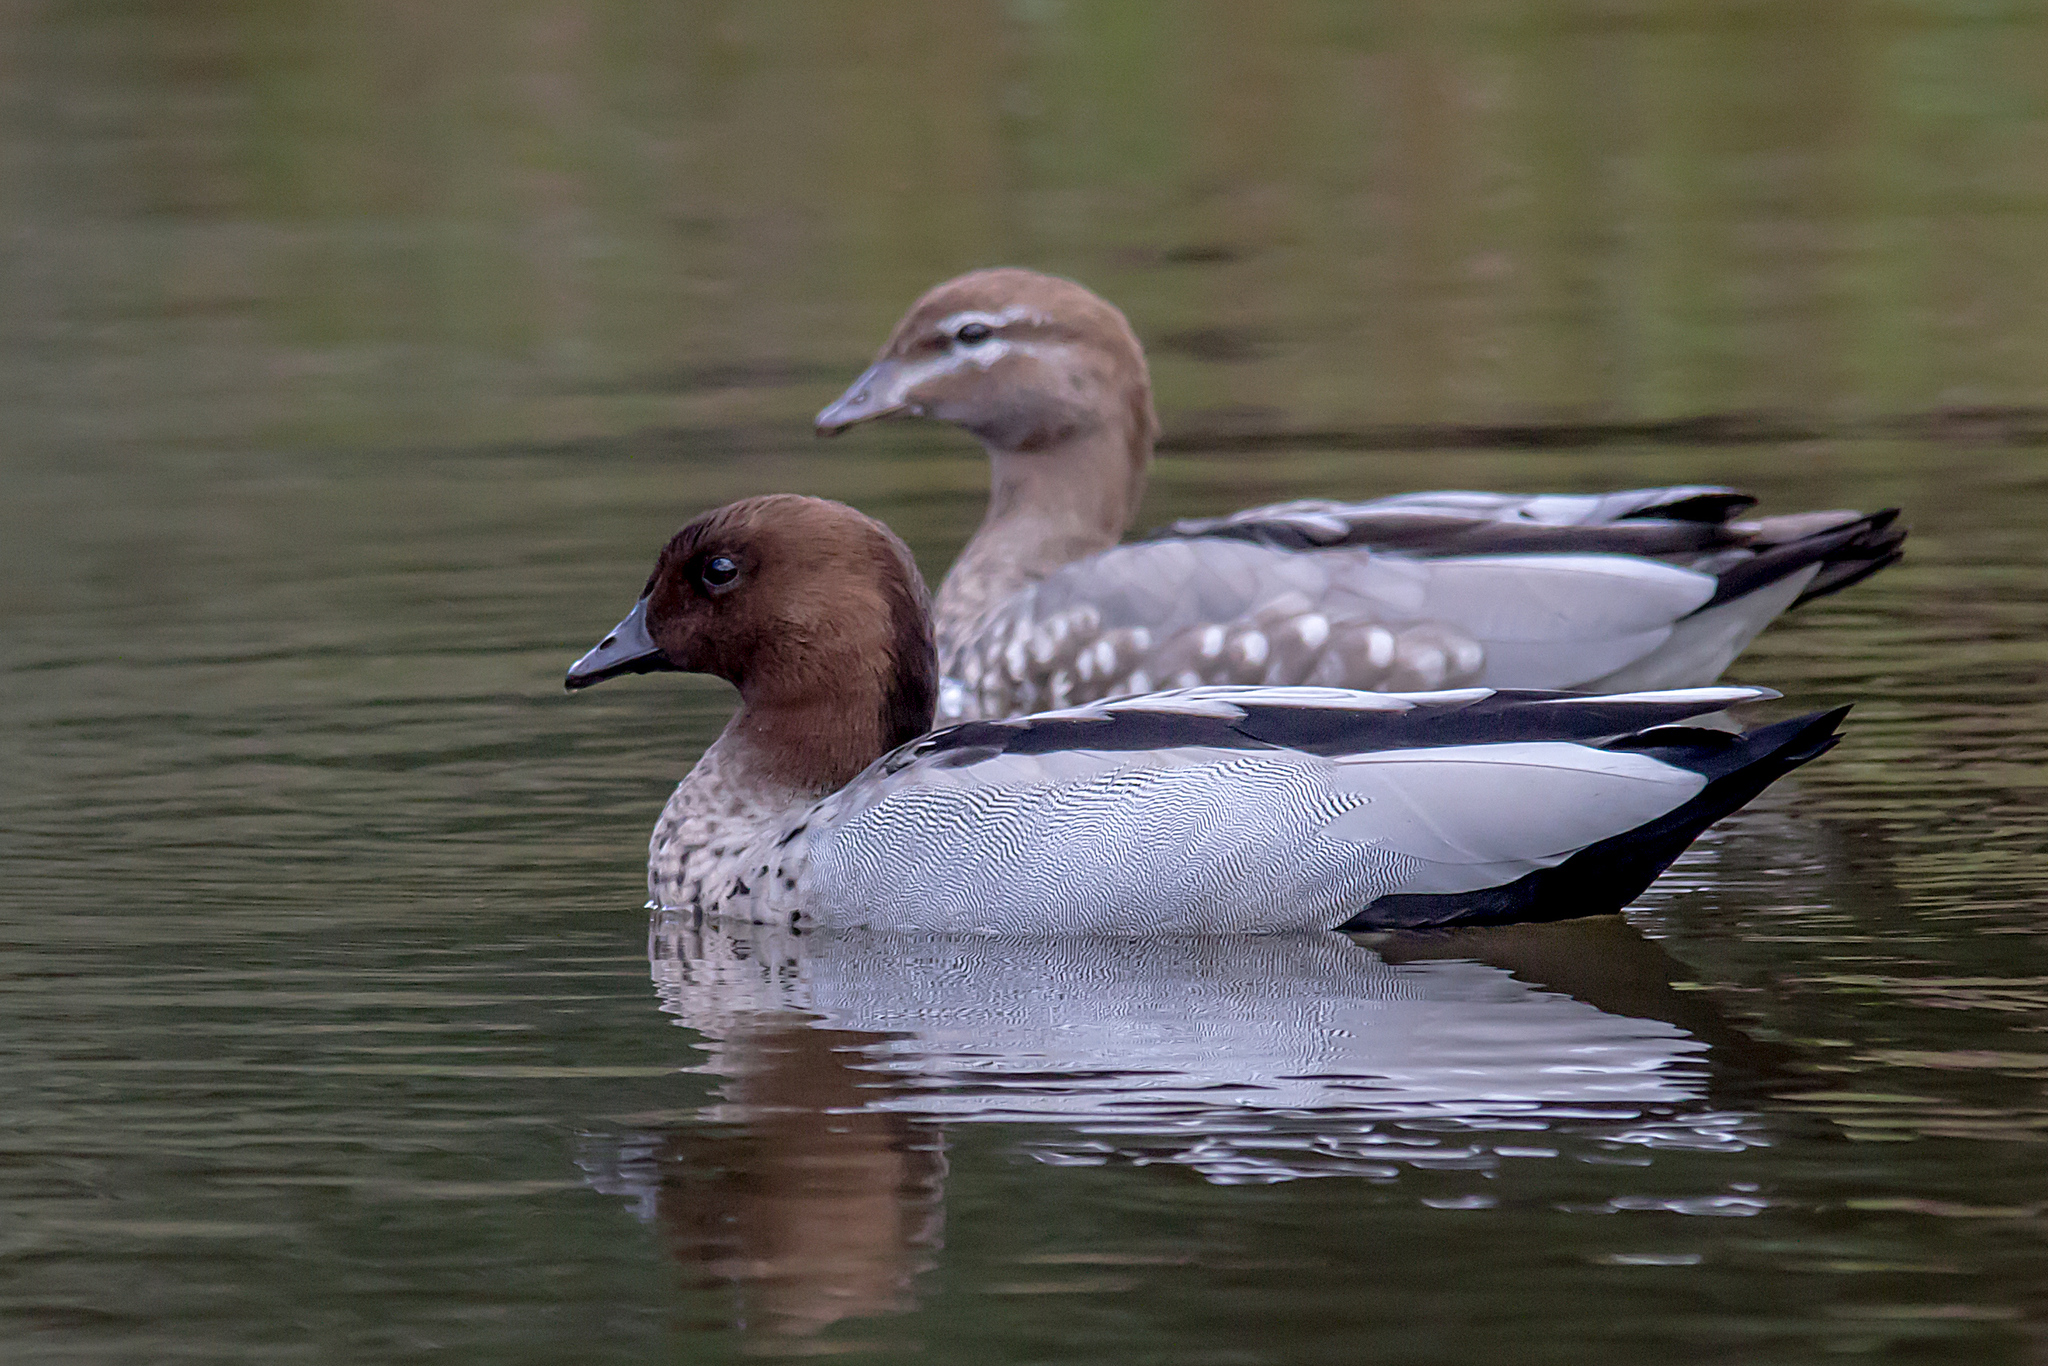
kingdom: Animalia
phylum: Chordata
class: Aves
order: Anseriformes
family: Anatidae
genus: Chenonetta
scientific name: Chenonetta jubata
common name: Maned duck
